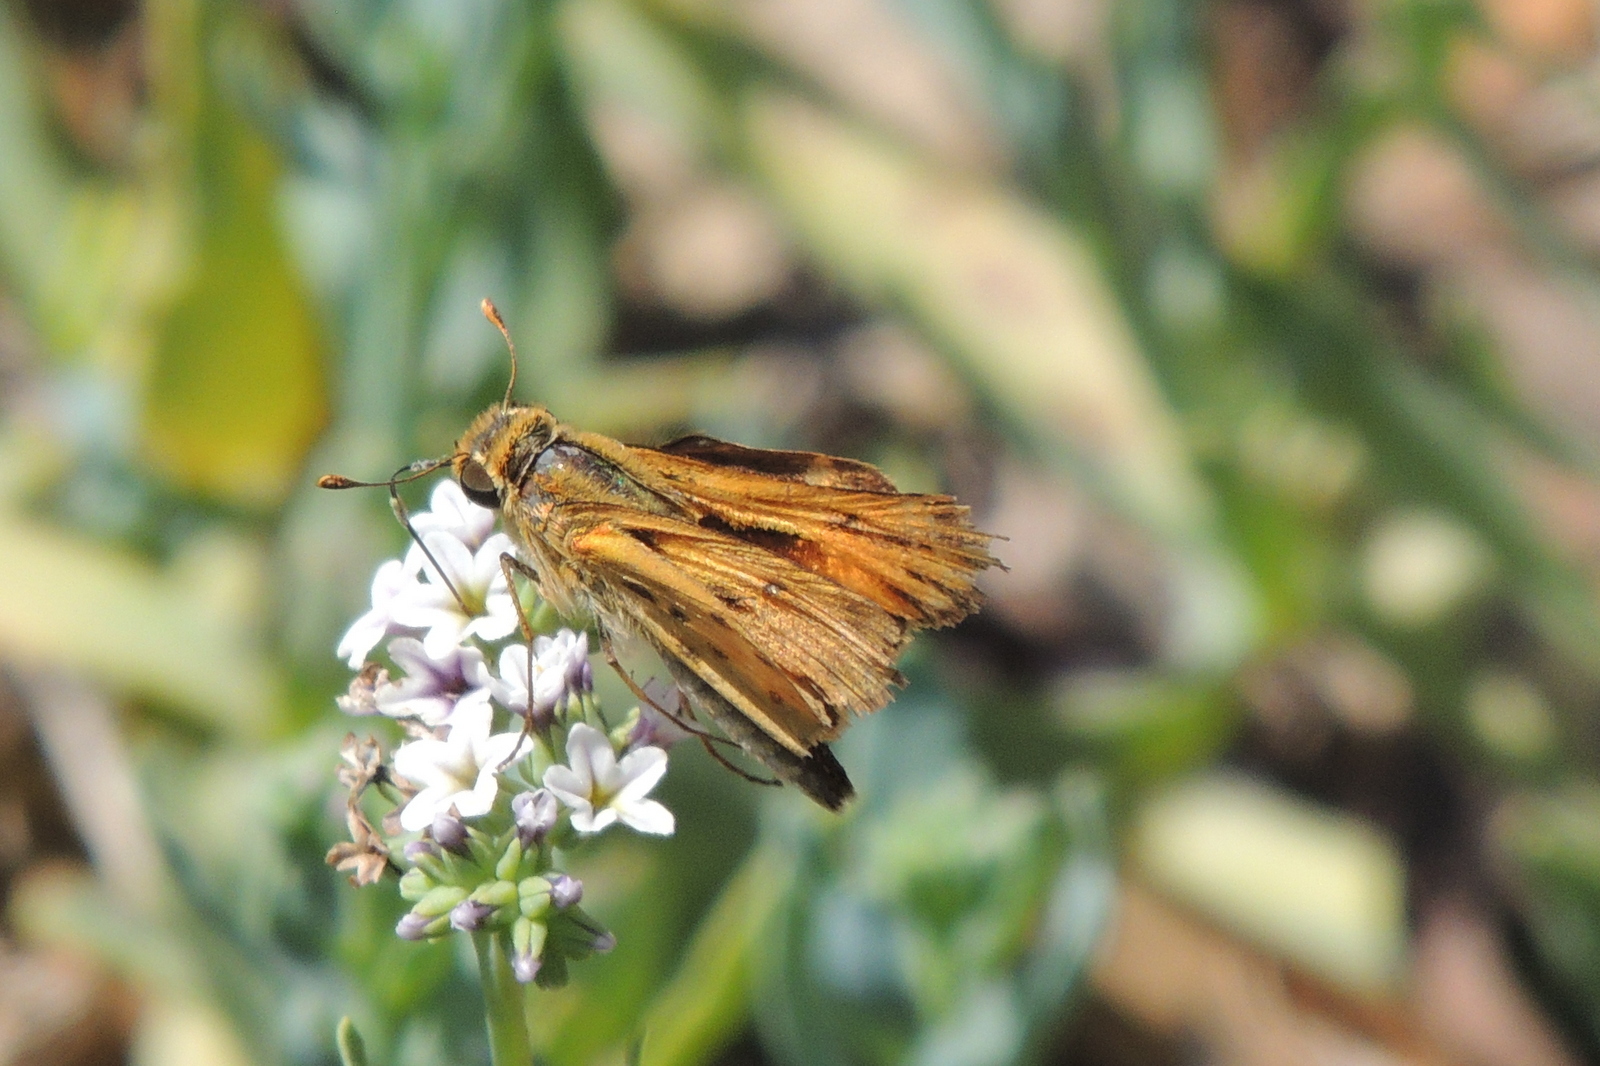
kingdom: Animalia
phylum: Arthropoda
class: Insecta
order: Lepidoptera
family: Hesperiidae
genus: Hylephila
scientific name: Hylephila phyleus
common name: Fiery skipper
